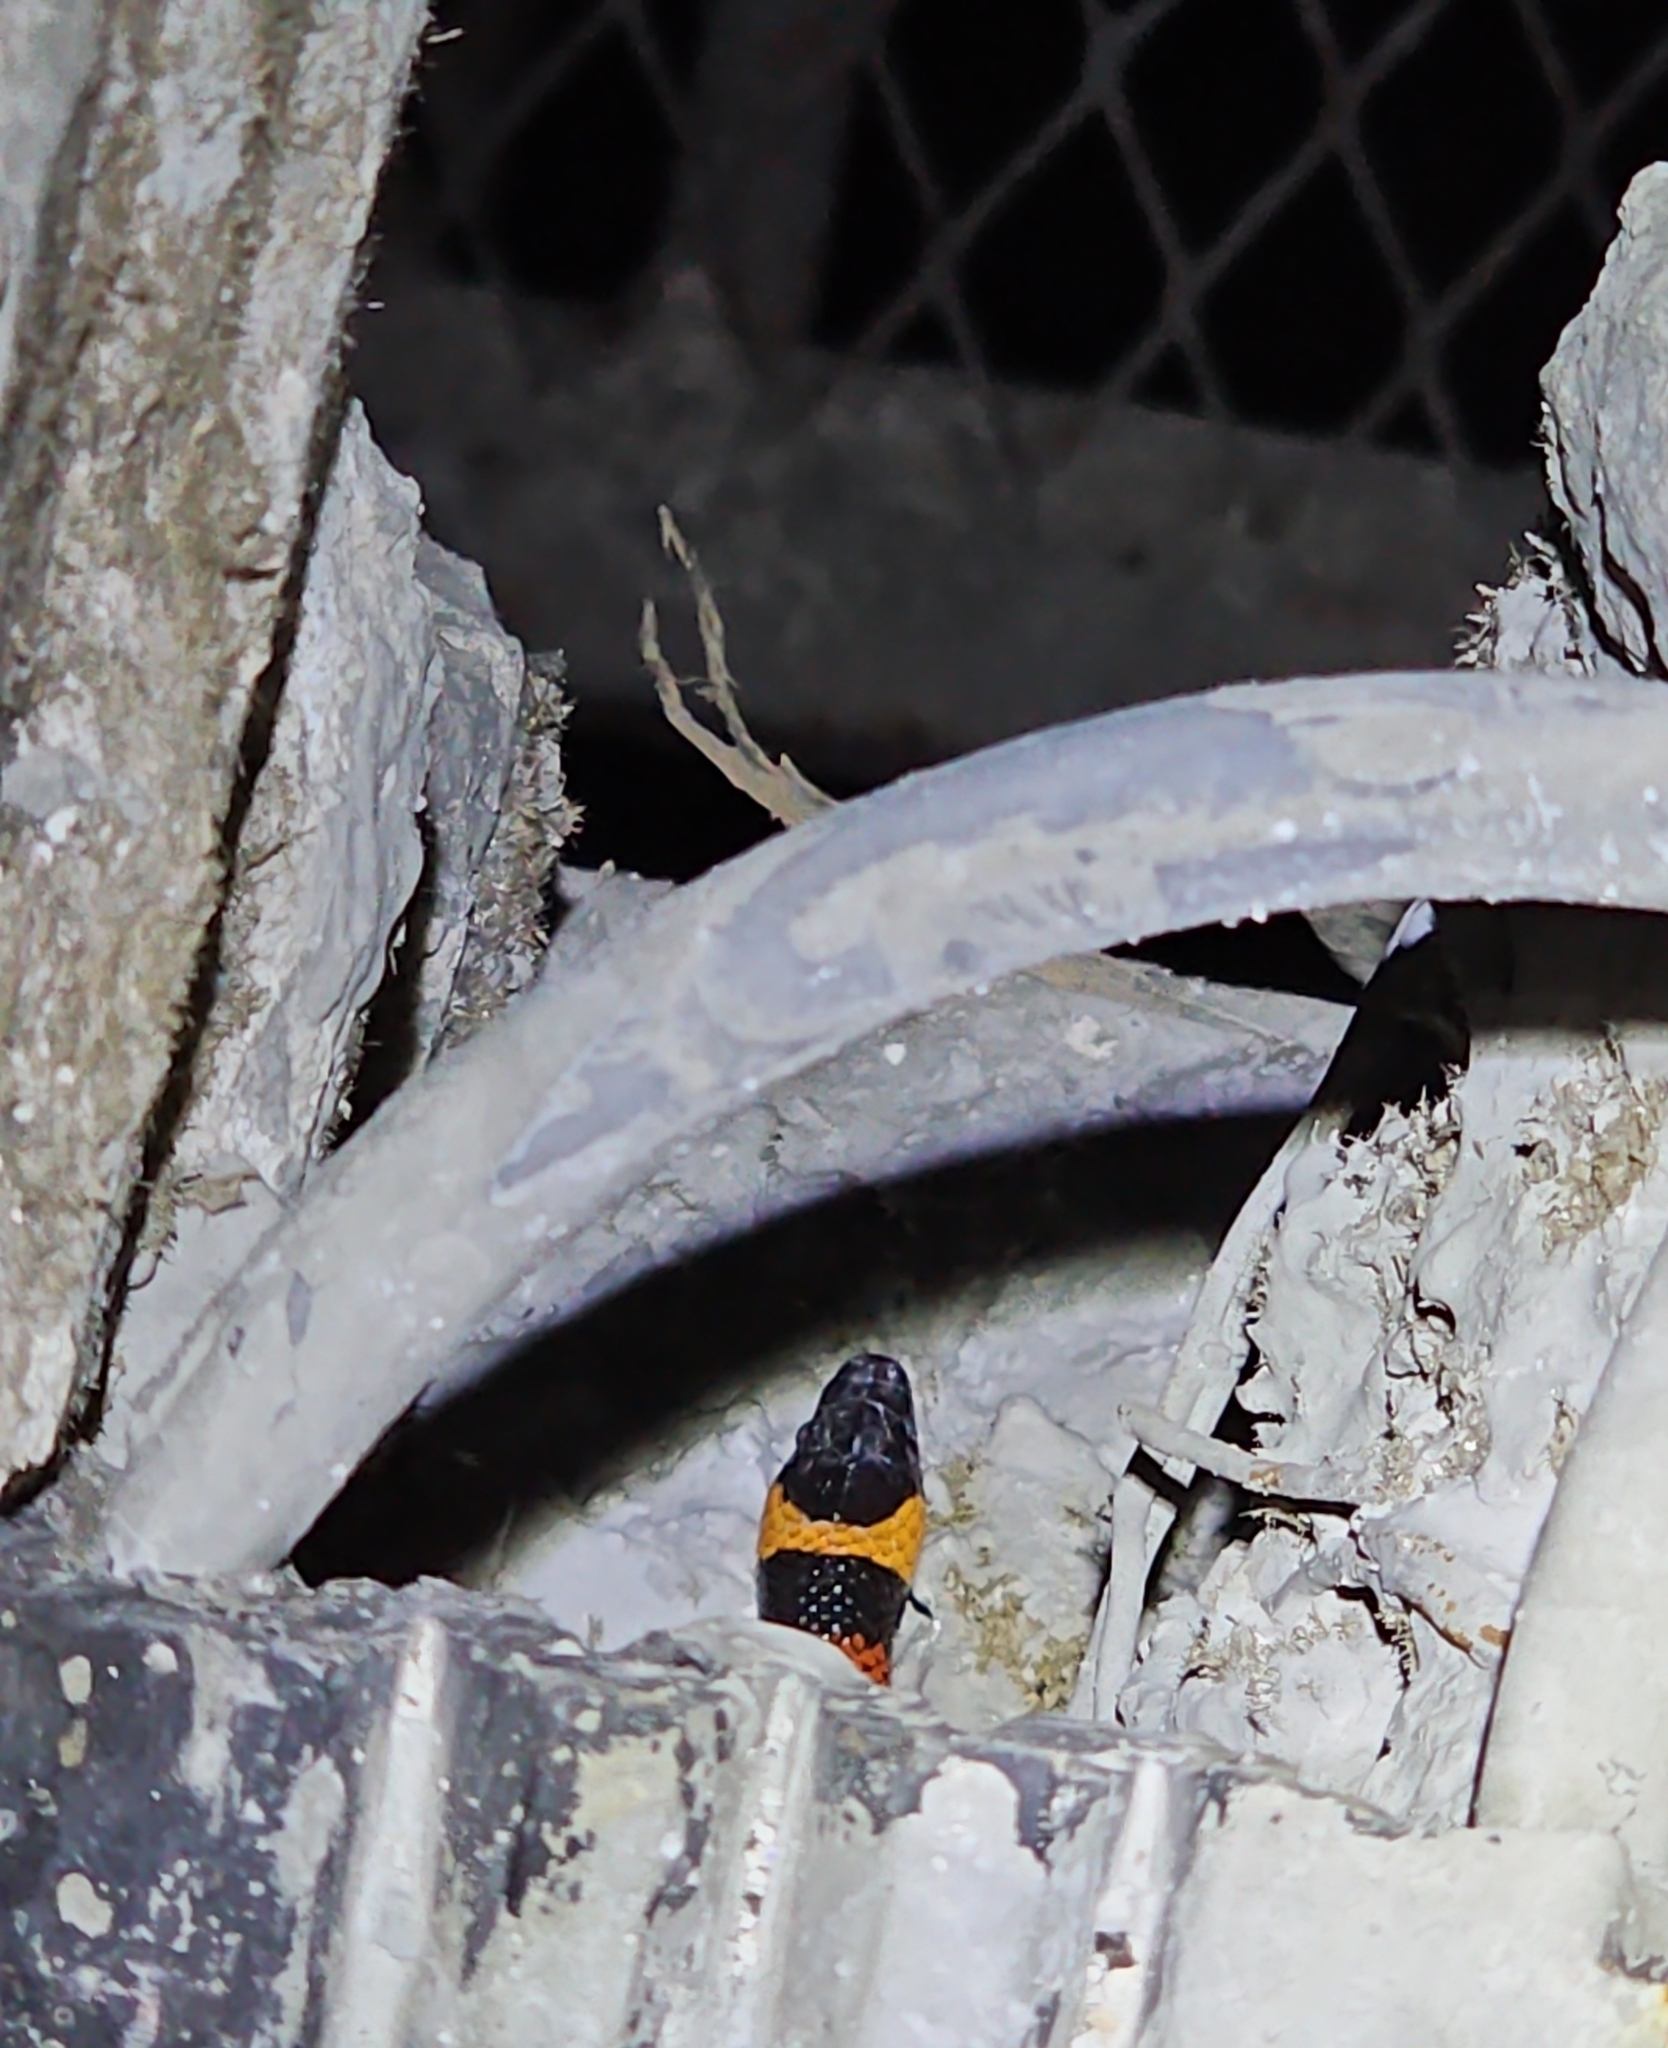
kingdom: Animalia
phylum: Chordata
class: Squamata
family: Colubridae
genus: Lampropeltis
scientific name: Lampropeltis abnorma
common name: Honduran milk snake
